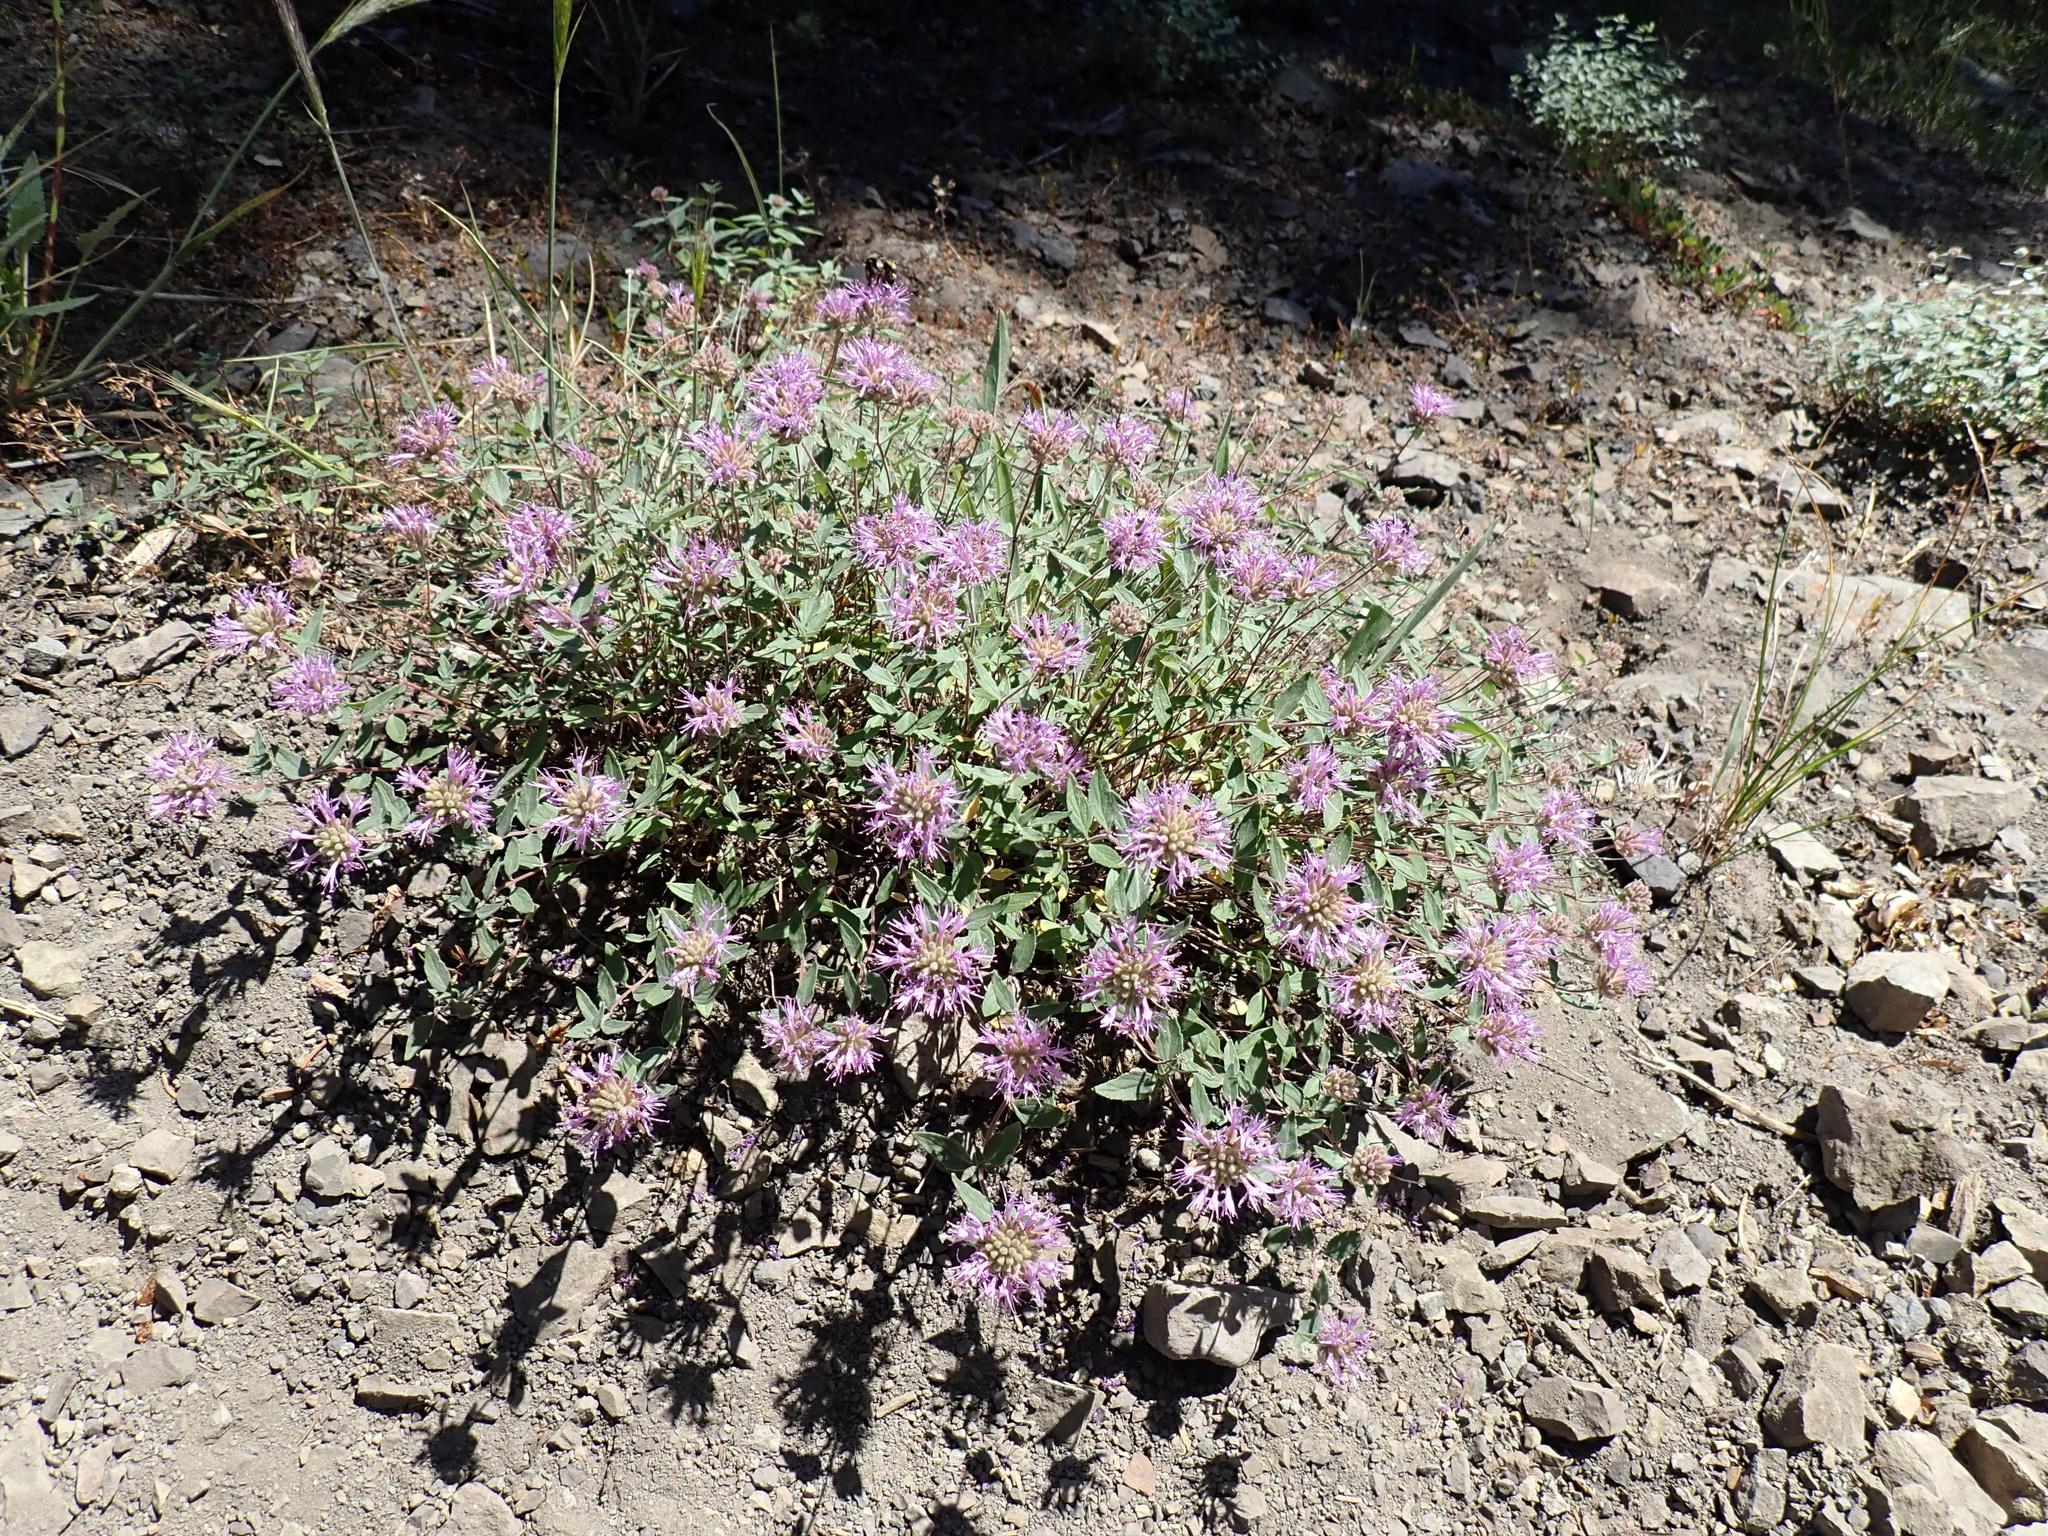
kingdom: Plantae
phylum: Tracheophyta
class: Magnoliopsida
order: Lamiales
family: Lamiaceae
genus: Monardella
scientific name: Monardella odoratissima
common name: Pacific monardella
